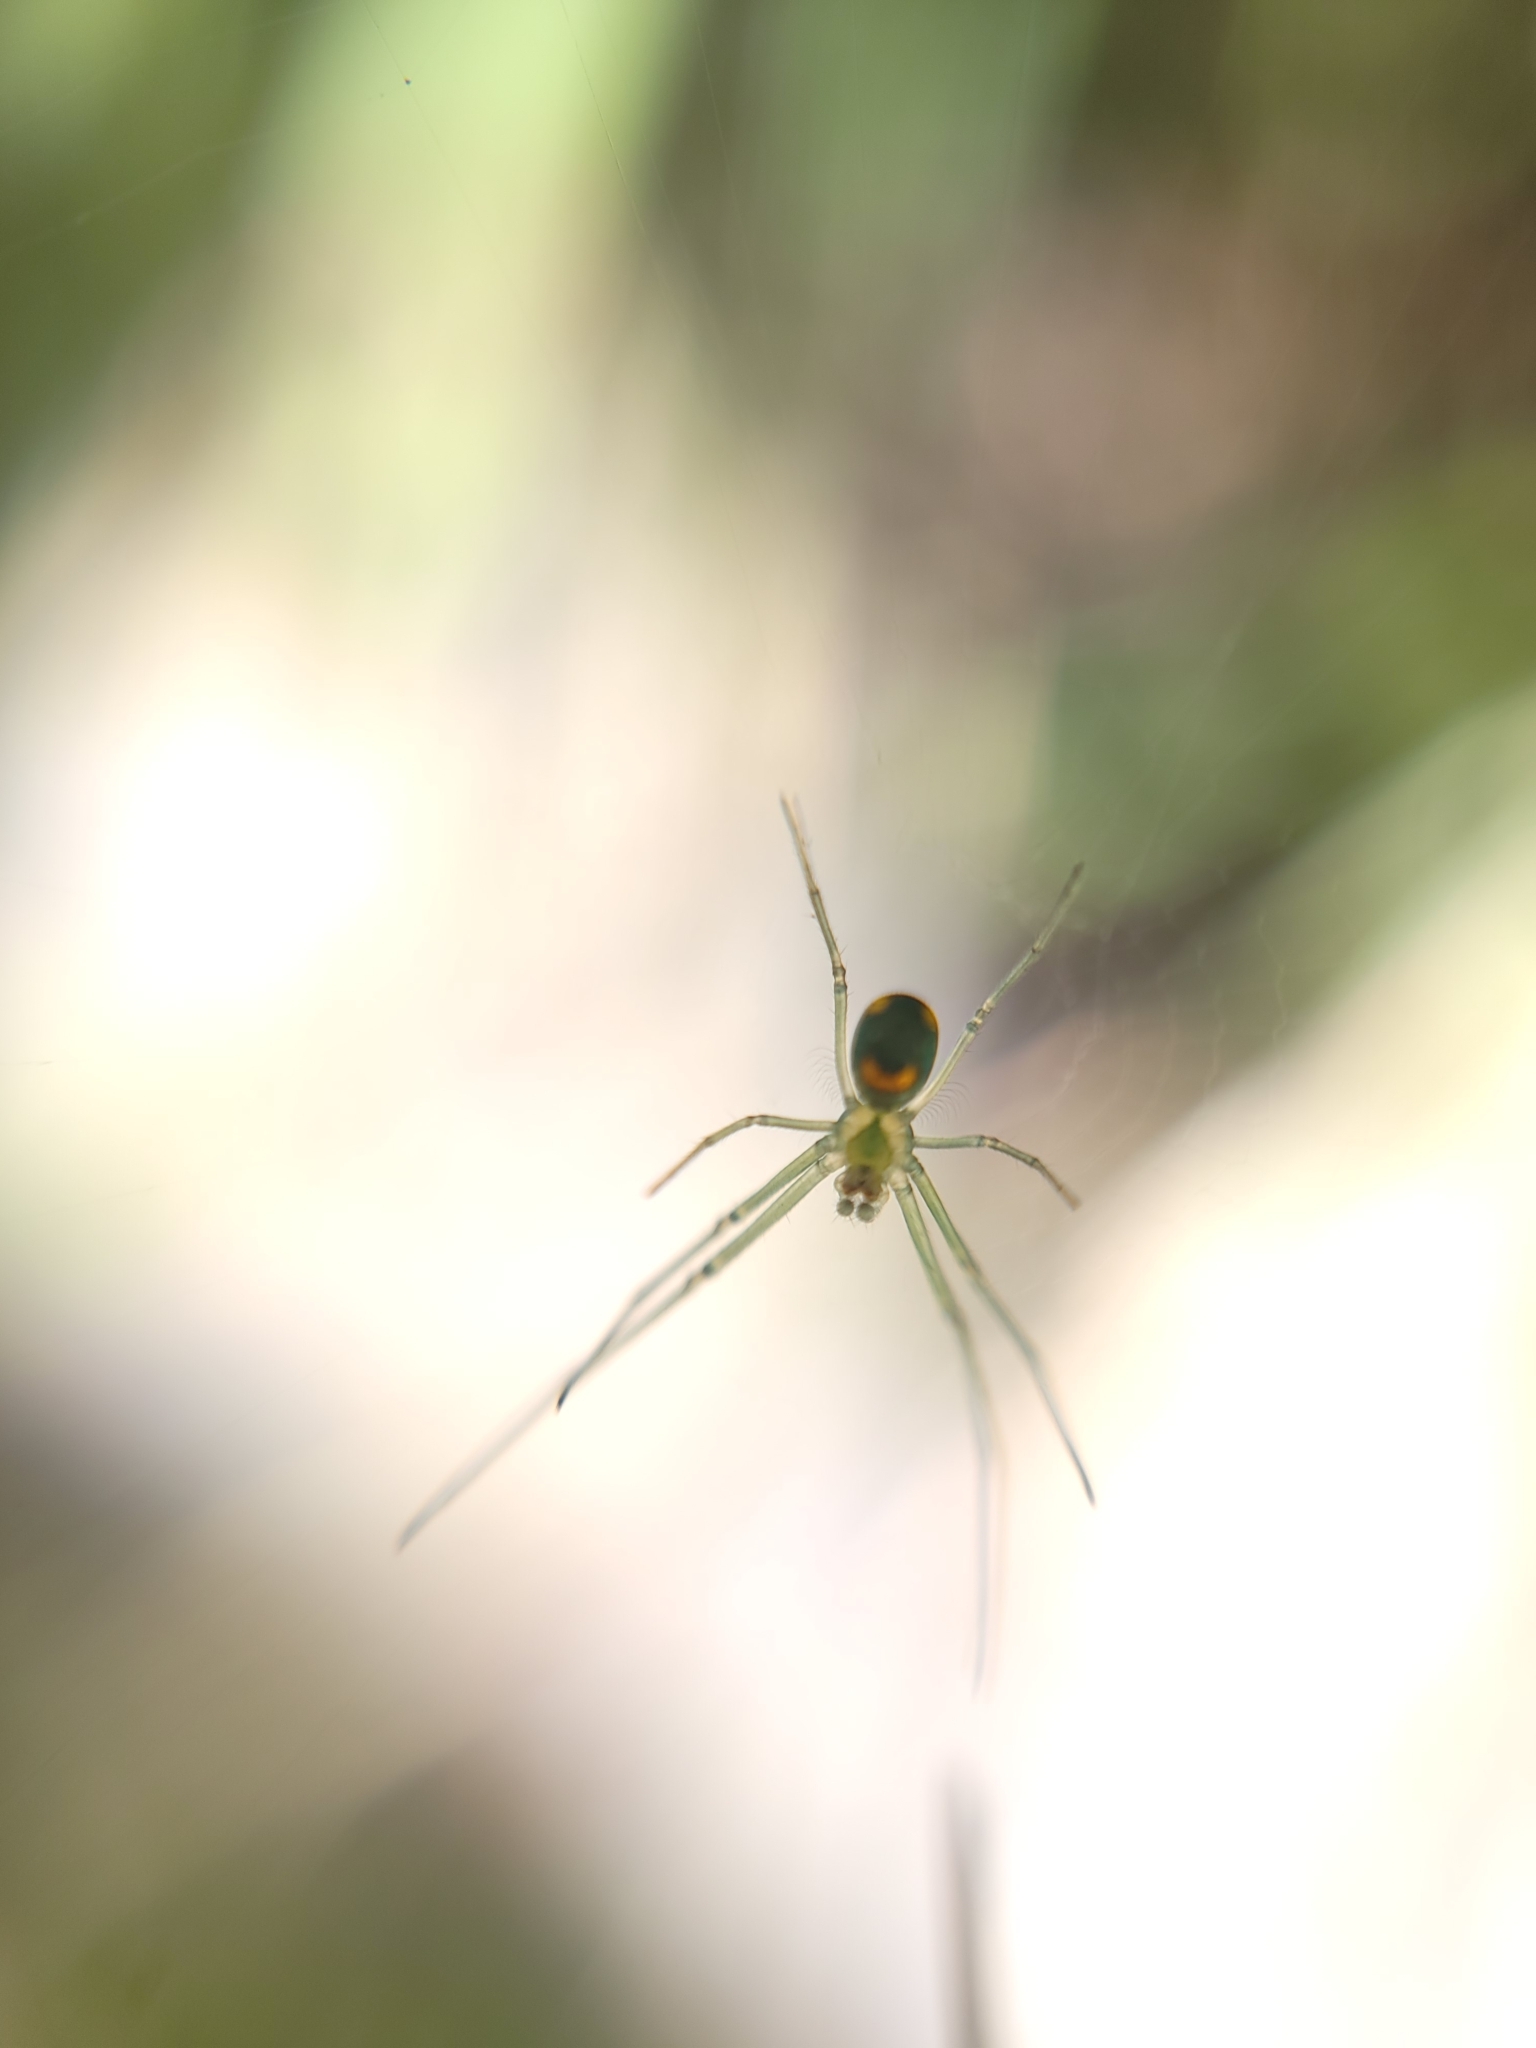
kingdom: Animalia
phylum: Arthropoda
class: Arachnida
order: Araneae
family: Tetragnathidae
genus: Leucauge
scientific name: Leucauge argyrobapta
